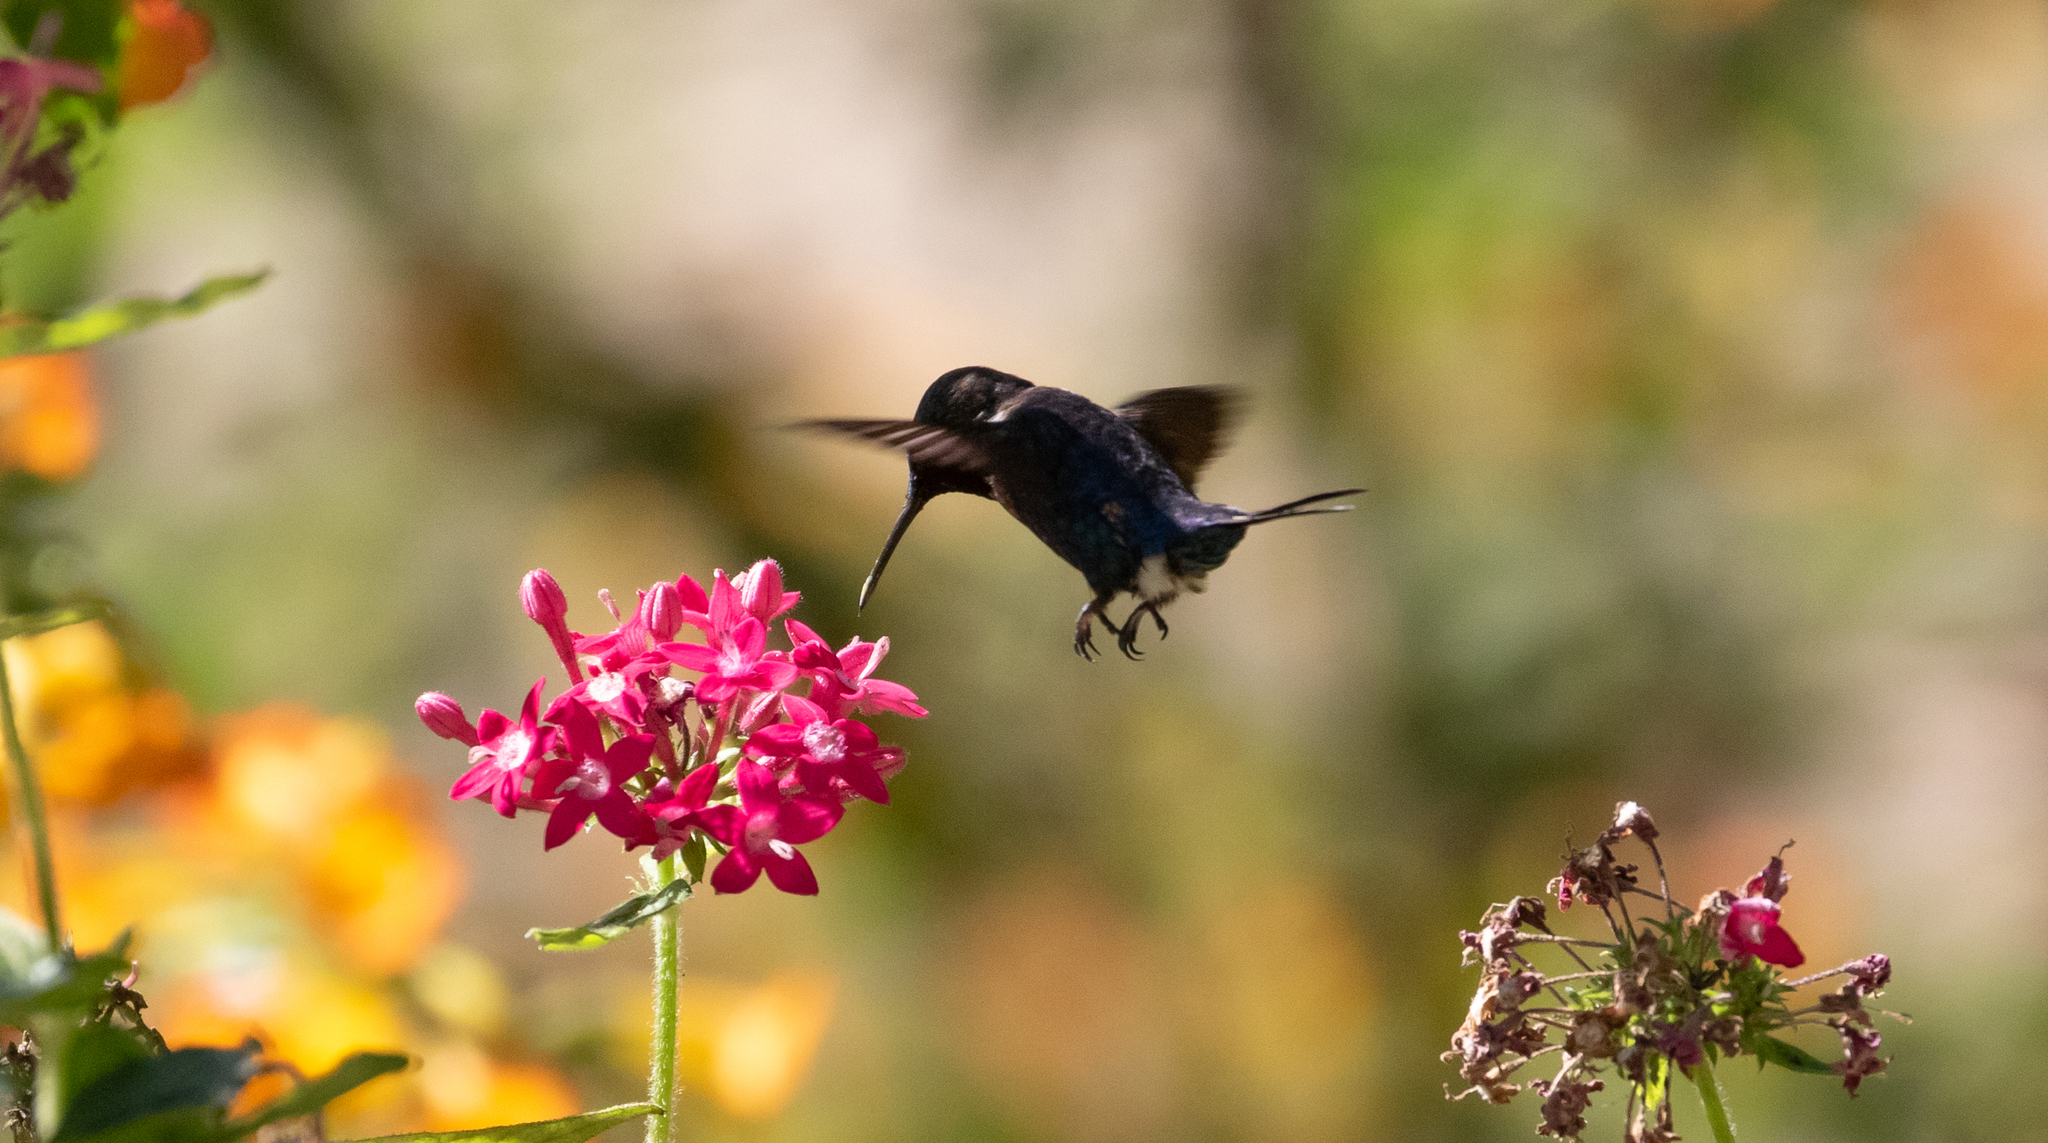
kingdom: Animalia
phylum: Chordata
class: Aves
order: Apodiformes
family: Trochilidae
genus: Chaetocercus
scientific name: Chaetocercus astreans
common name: Santa marta woodstar
